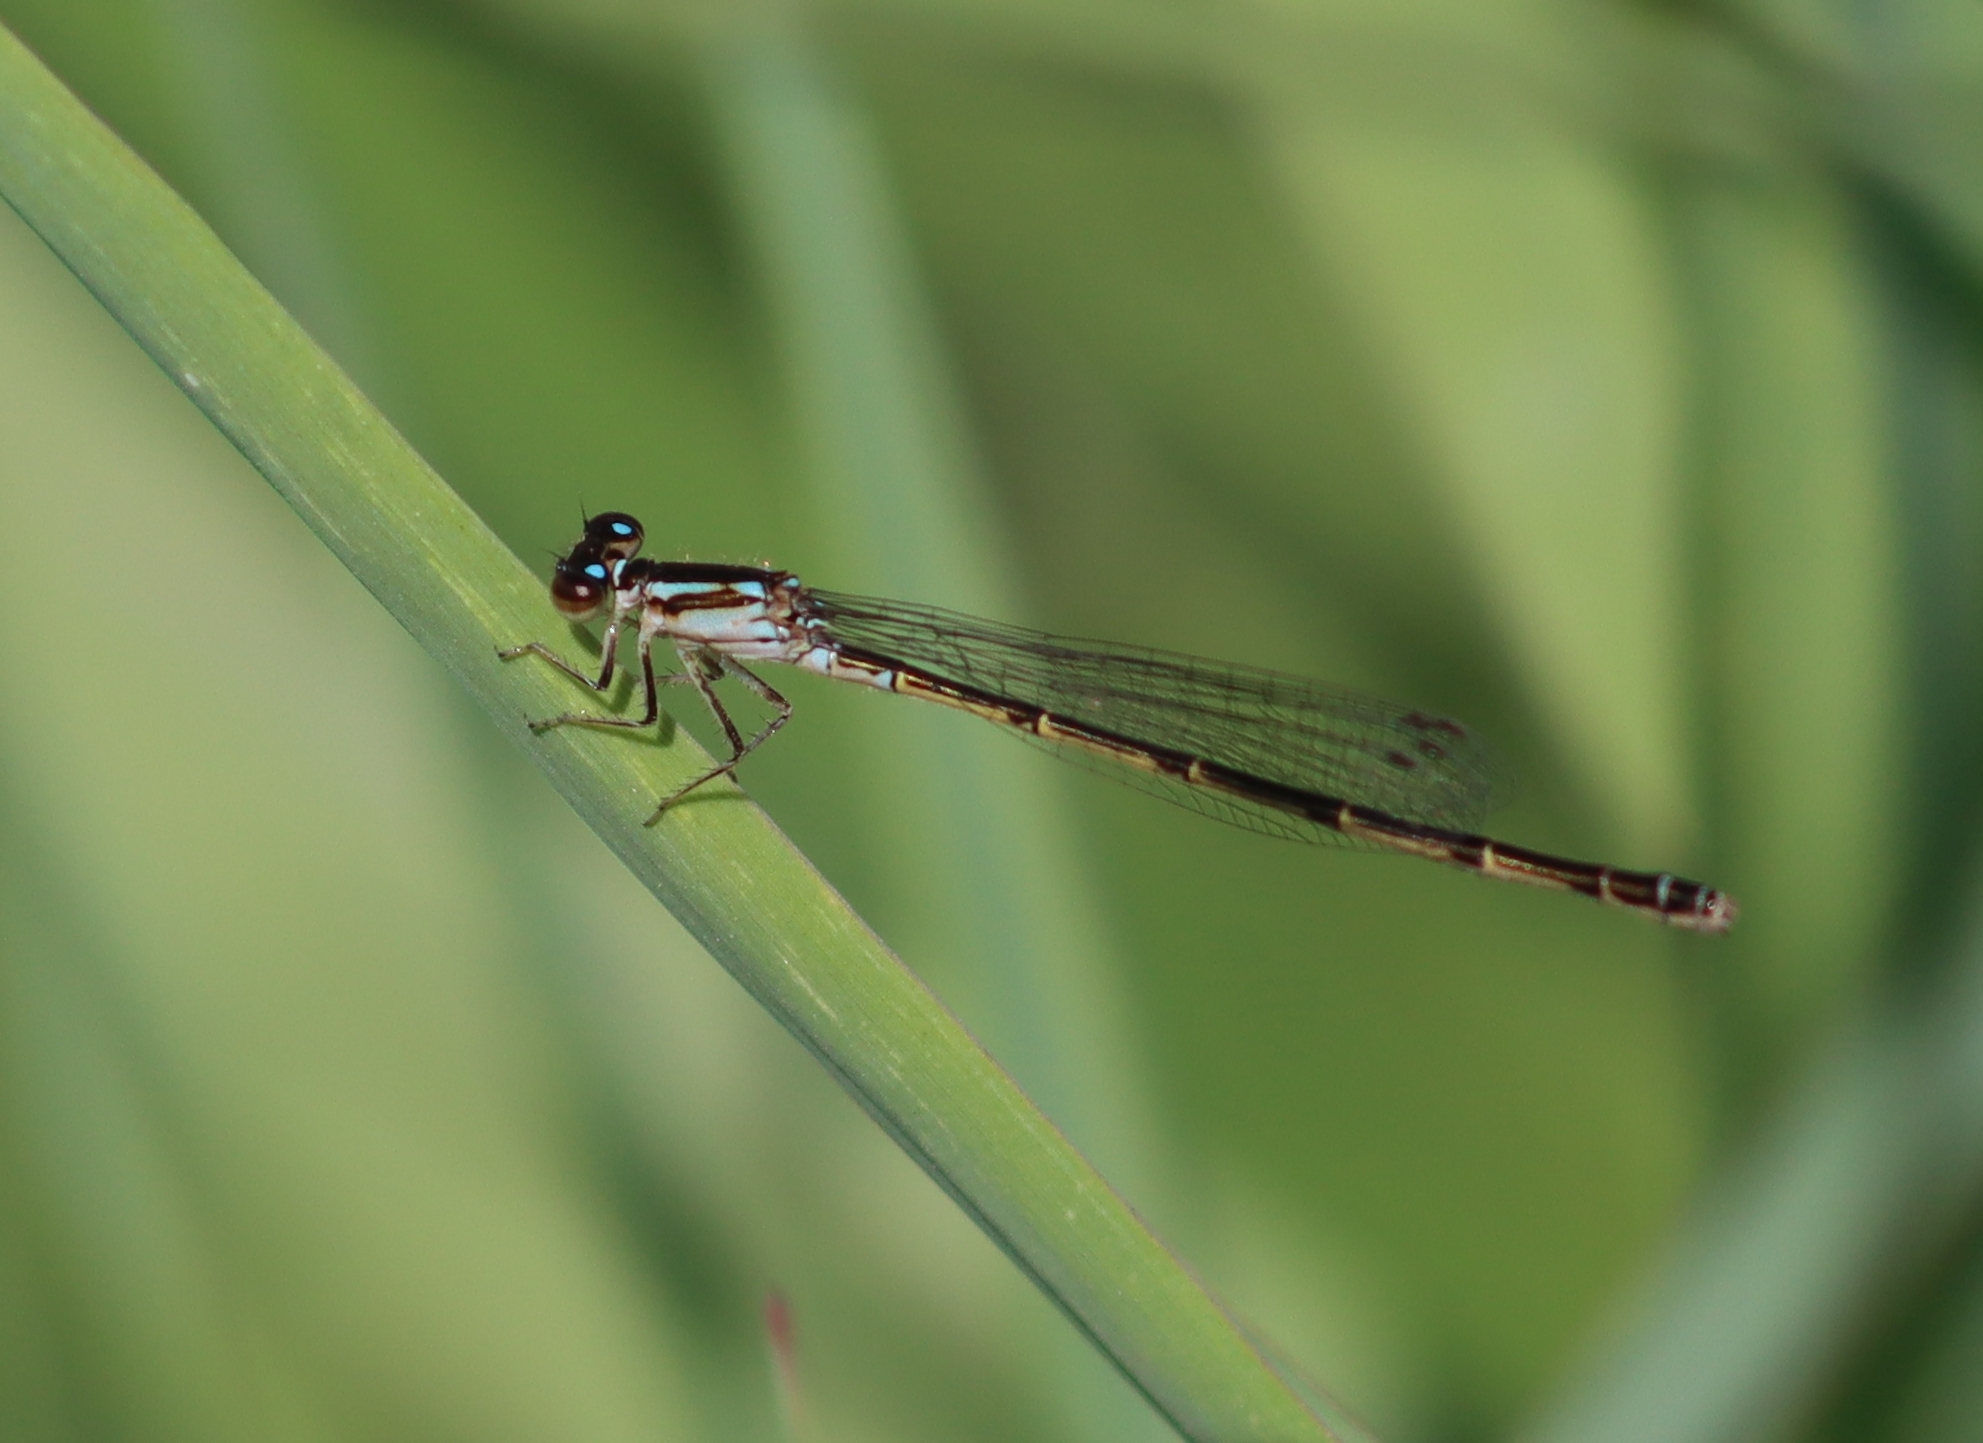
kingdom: Animalia
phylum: Arthropoda
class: Insecta
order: Odonata
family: Coenagrionidae
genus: Ischnura
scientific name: Ischnura posita
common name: Fragile forktail
